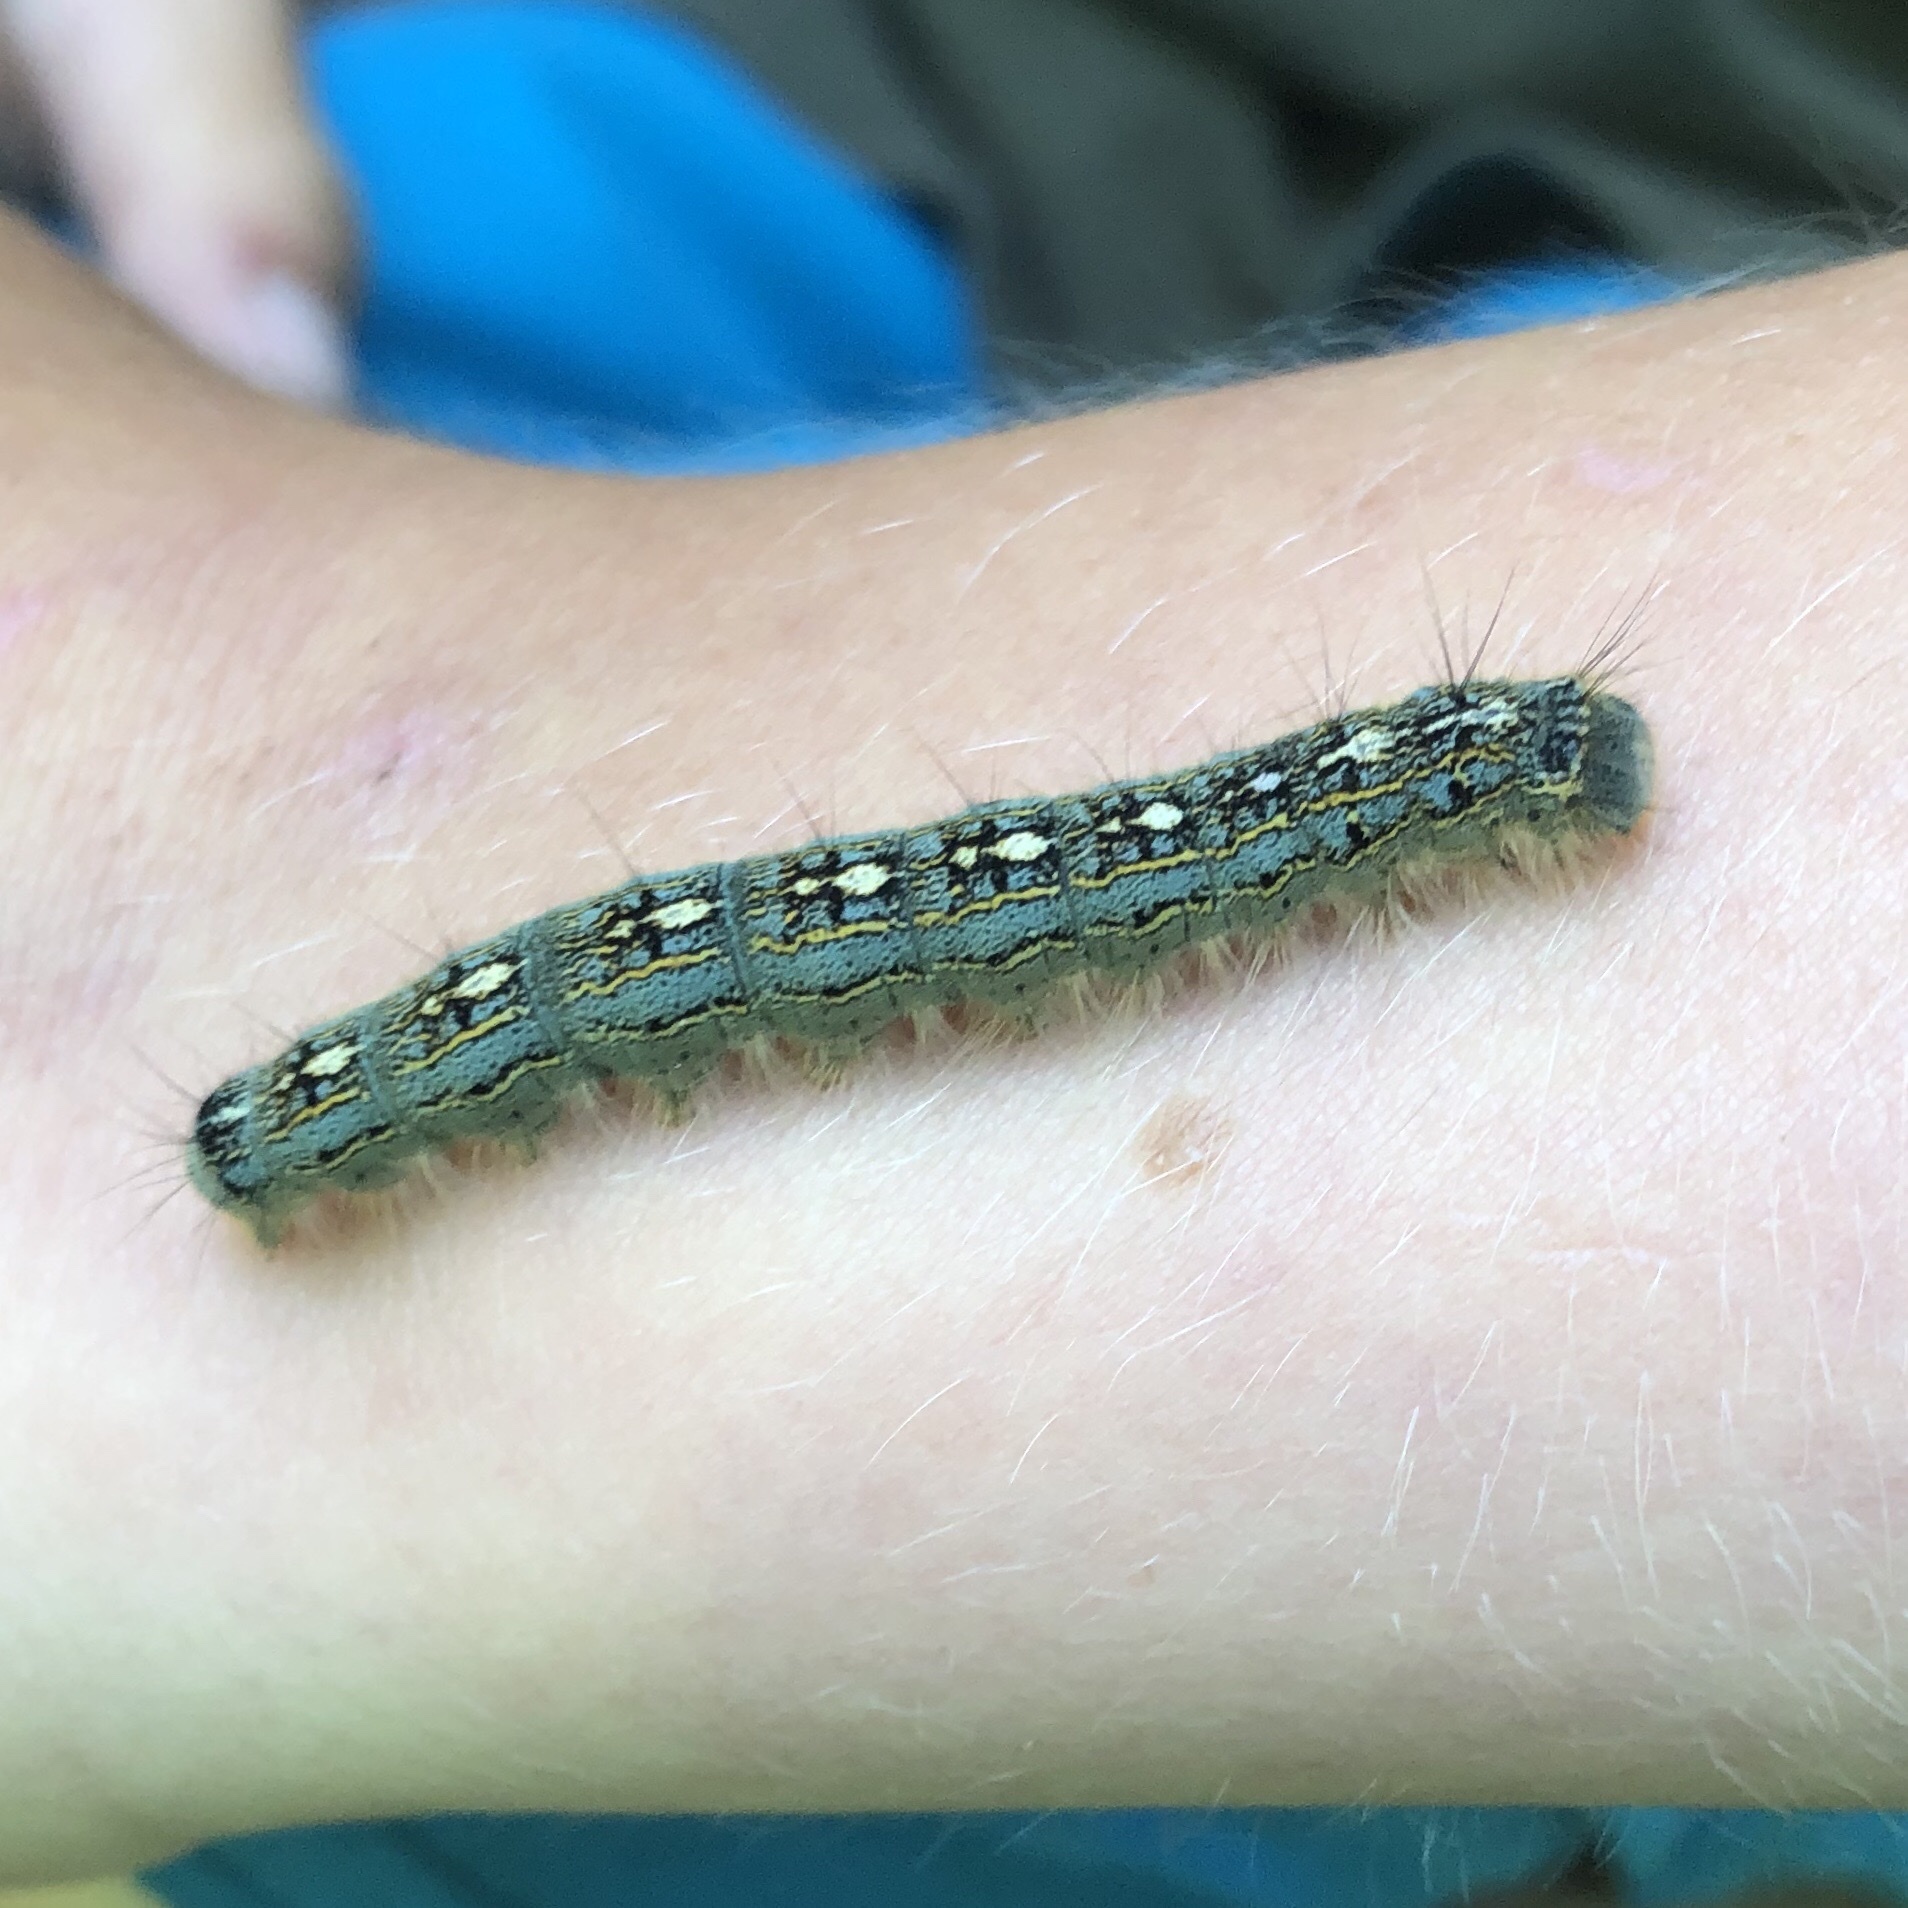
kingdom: Animalia
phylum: Arthropoda
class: Insecta
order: Lepidoptera
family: Lasiocampidae
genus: Malacosoma
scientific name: Malacosoma disstria
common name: Forest tent caterpillar
